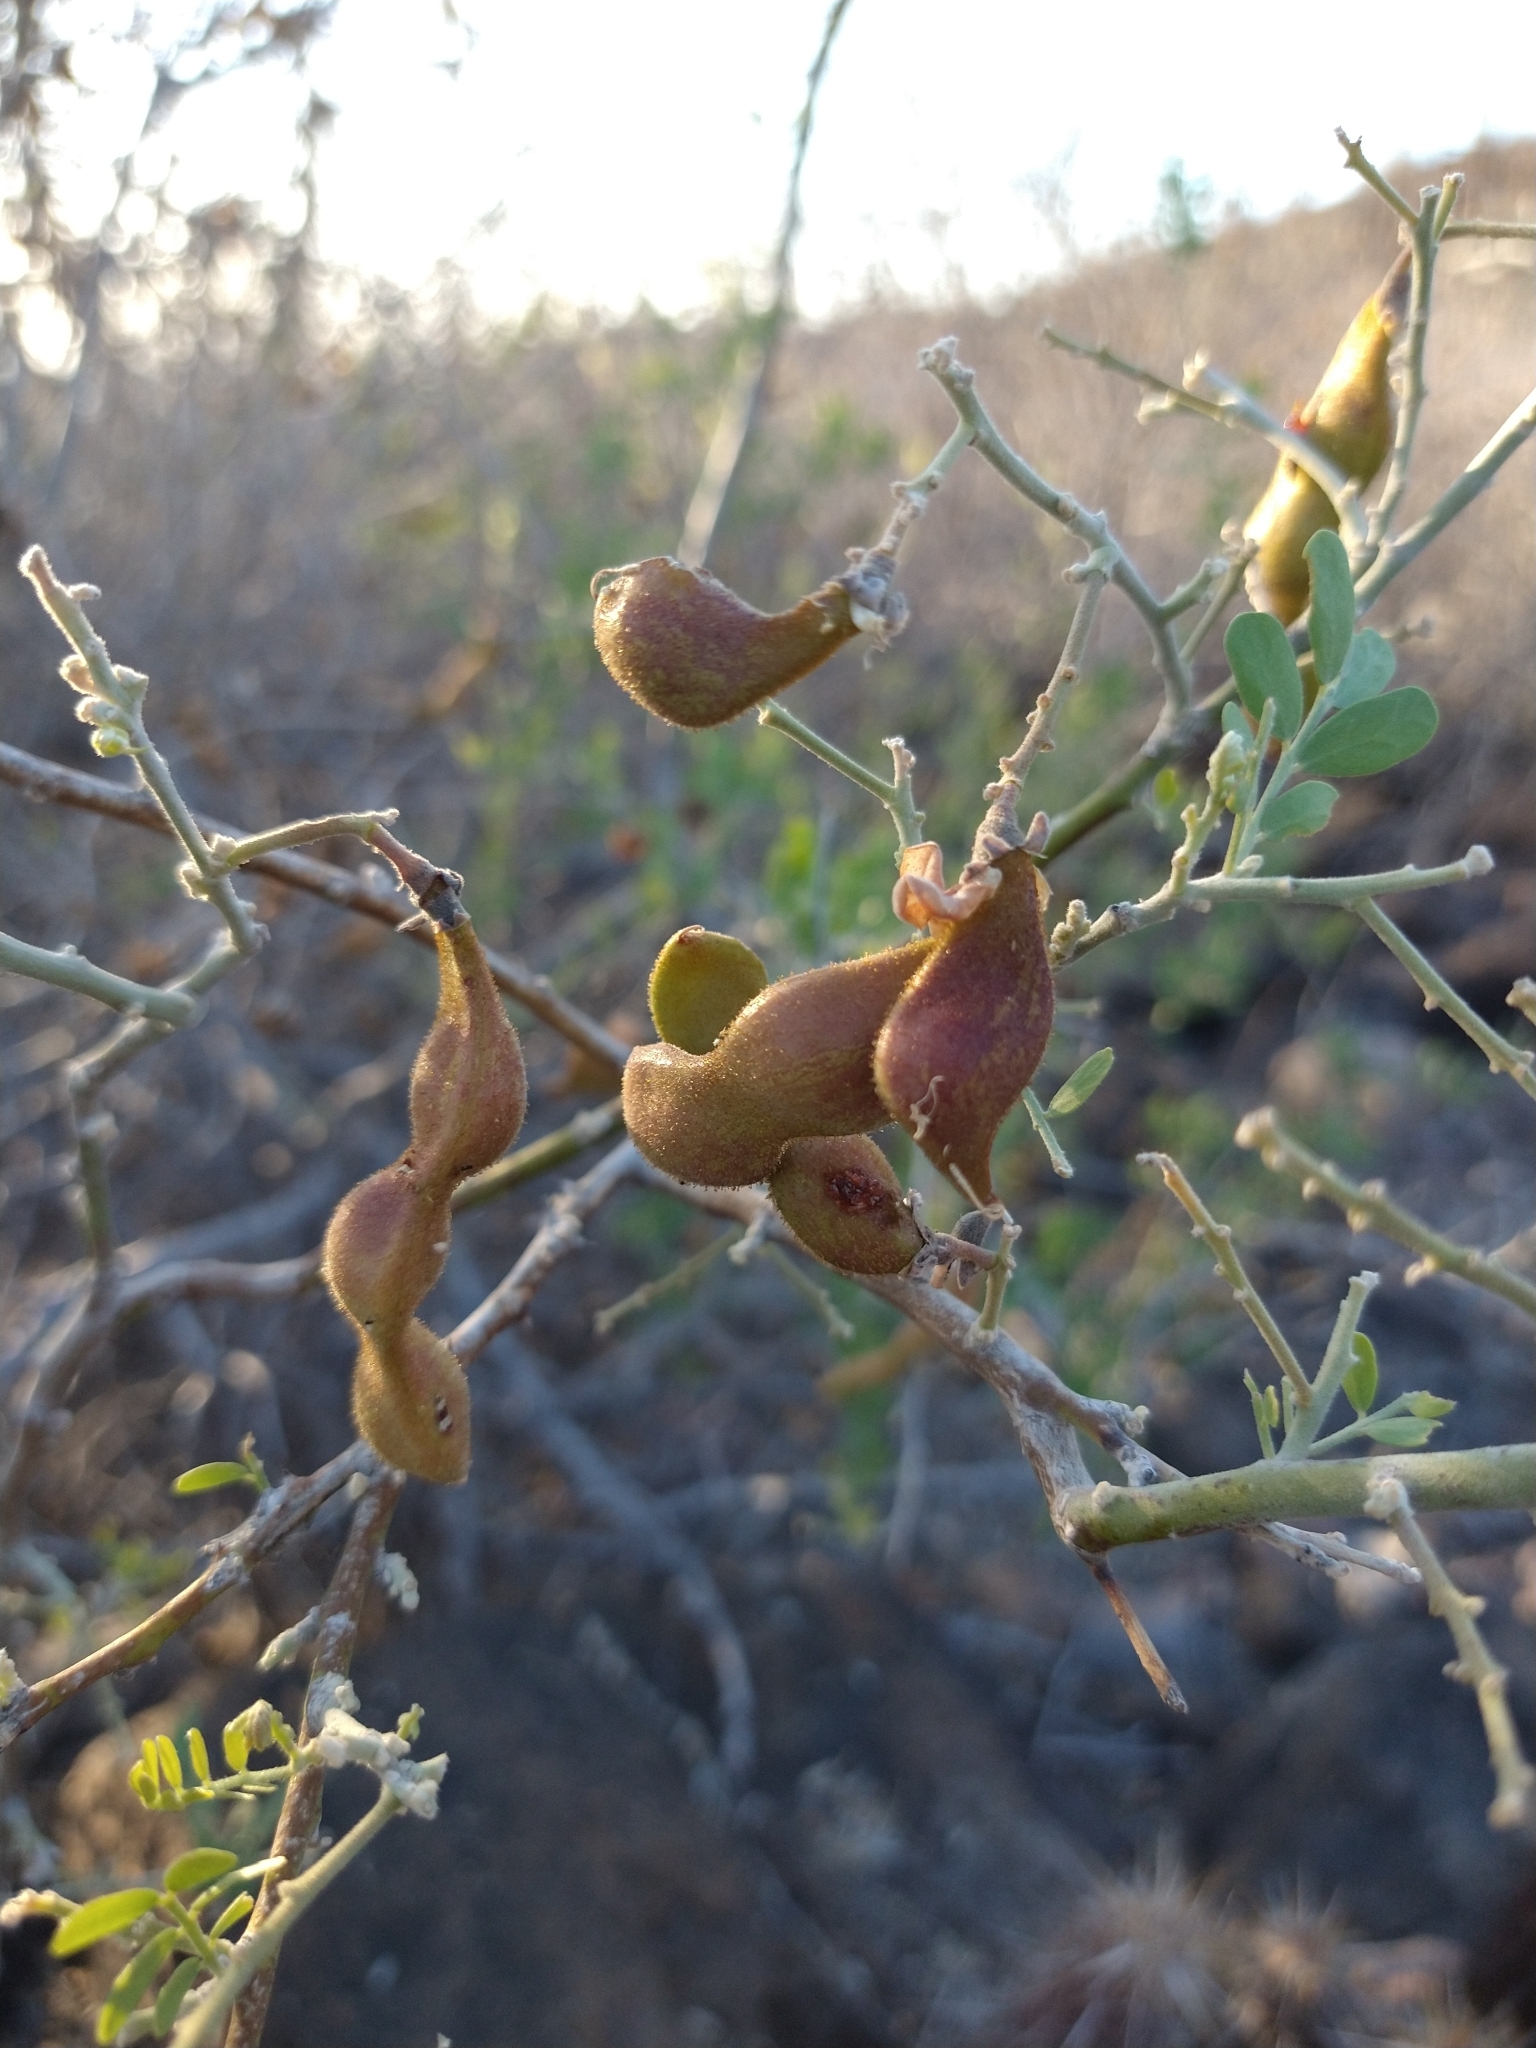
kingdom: Plantae
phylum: Tracheophyta
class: Magnoliopsida
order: Fabales
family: Fabaceae
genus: Olneya
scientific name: Olneya tesota
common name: Desert ironwood
